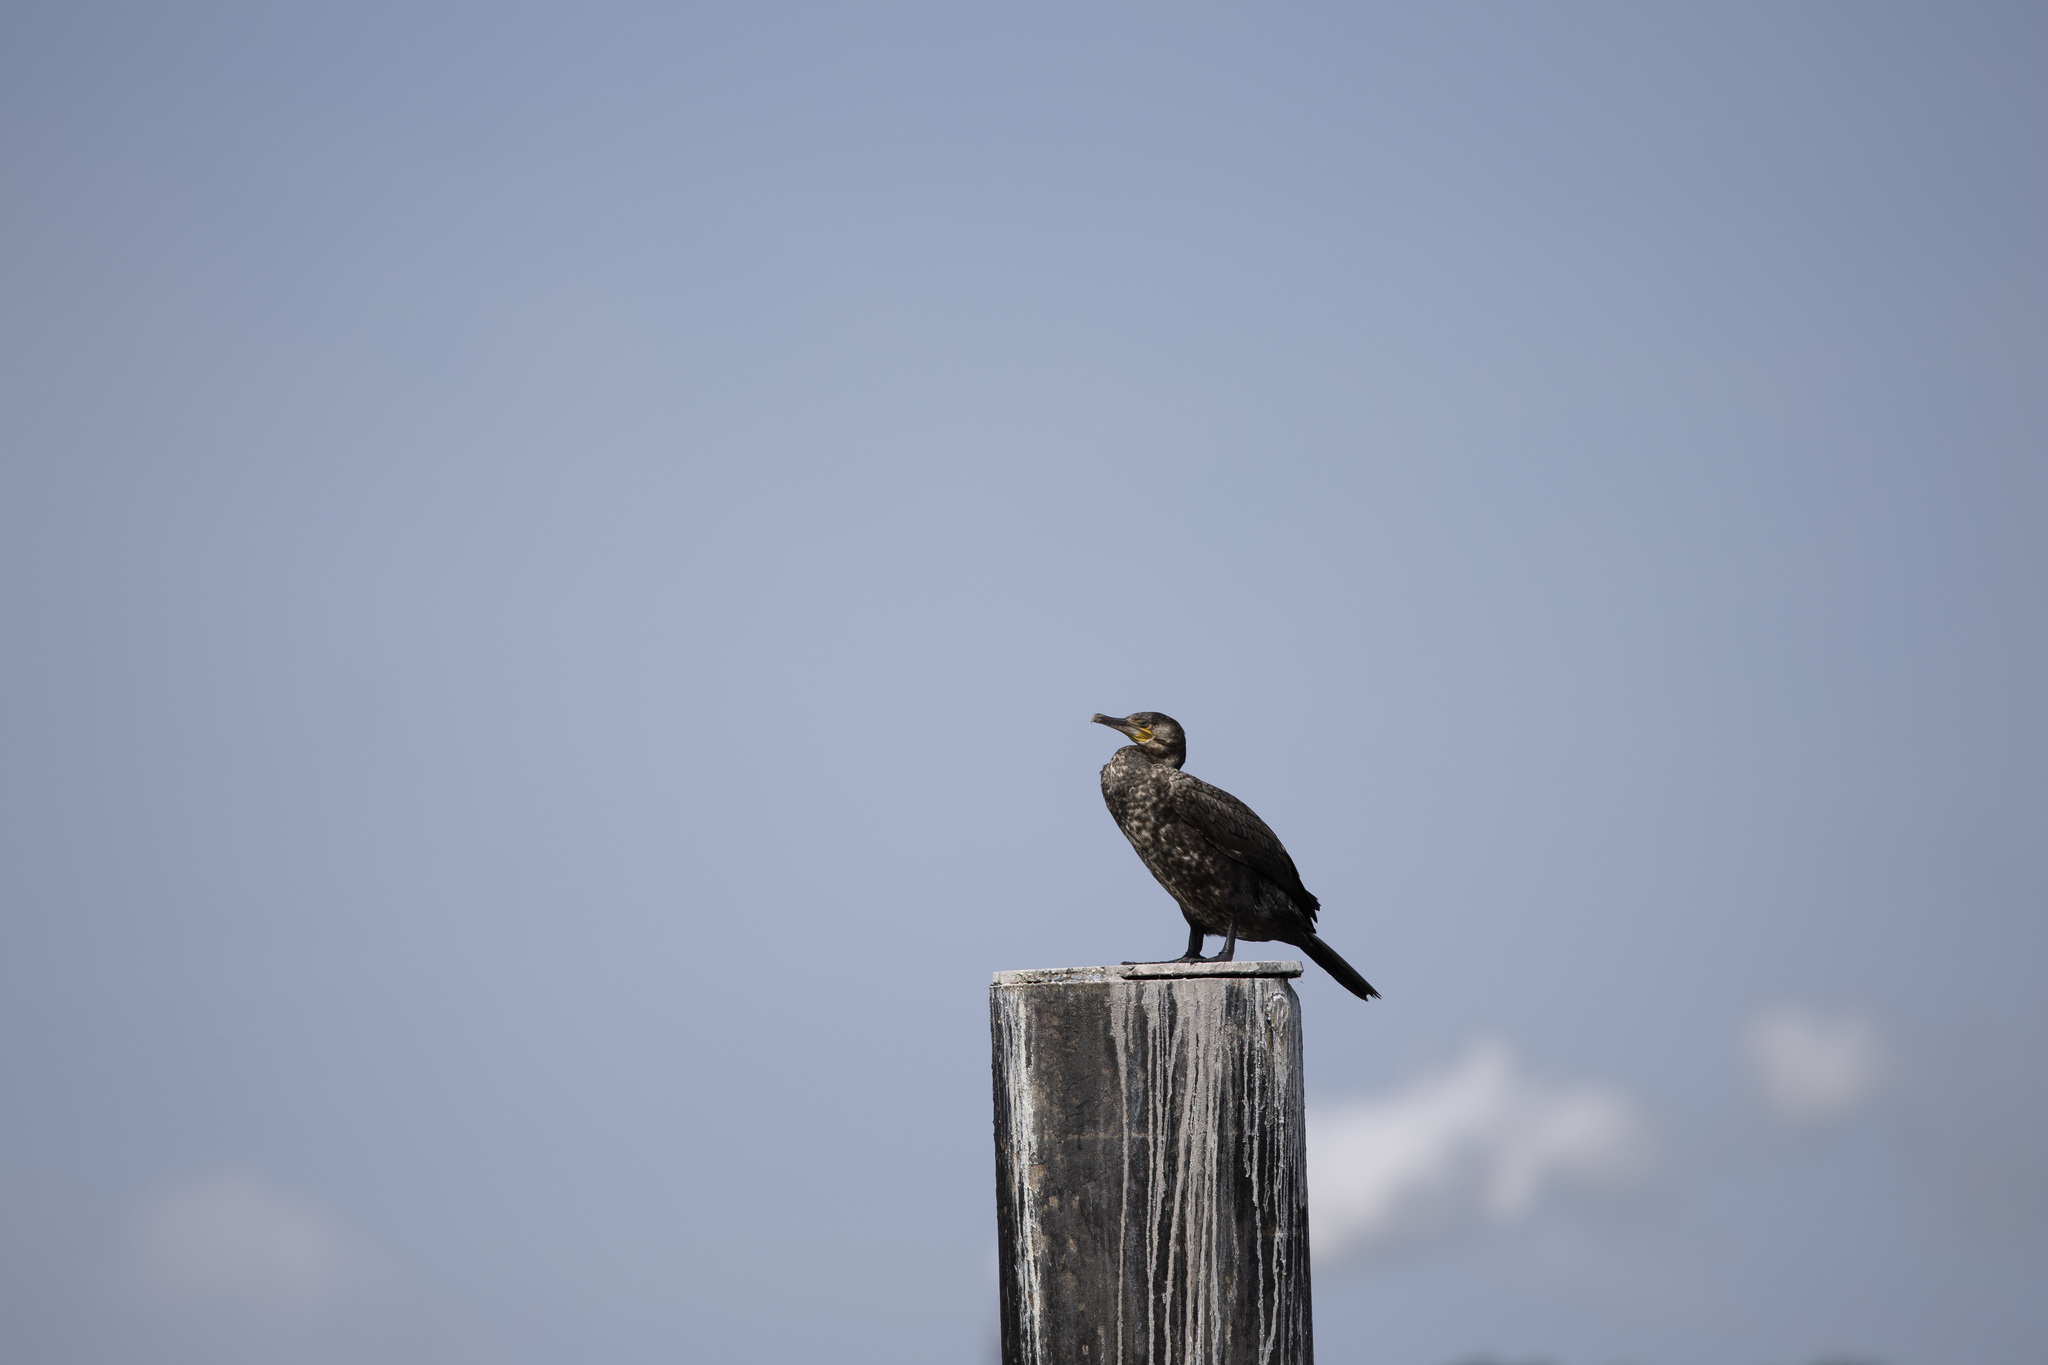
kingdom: Animalia
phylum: Chordata
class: Aves
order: Suliformes
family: Phalacrocoracidae
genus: Phalacrocorax
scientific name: Phalacrocorax carbo
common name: Great cormorant
